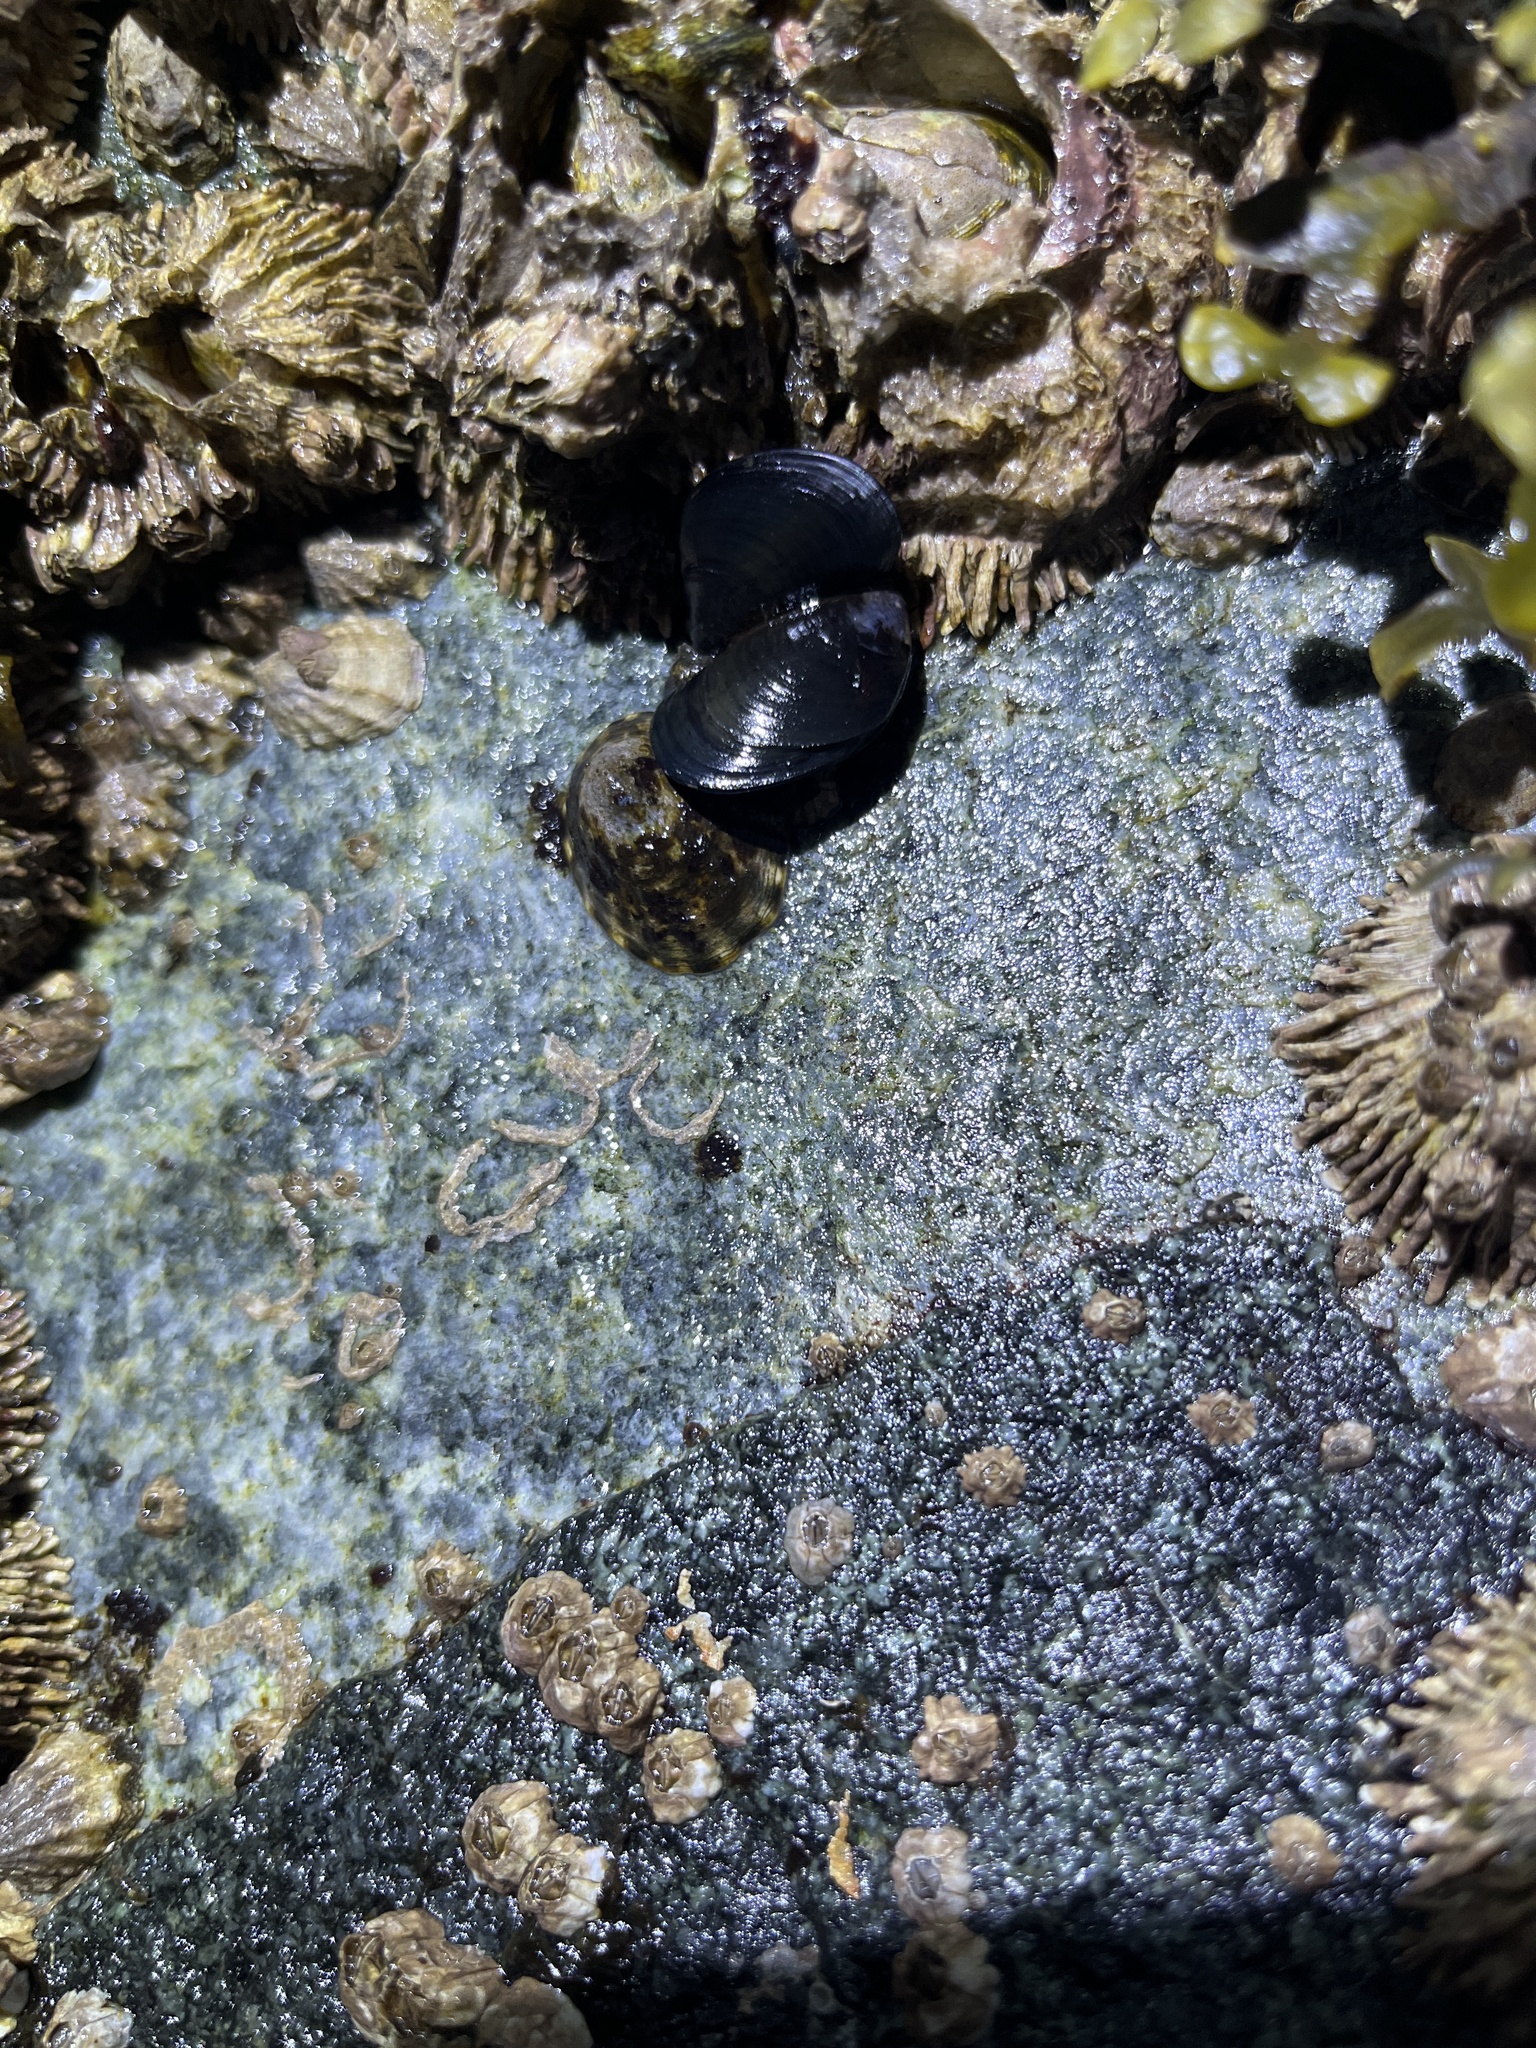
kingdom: Animalia
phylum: Mollusca
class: Bivalvia
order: Mytilida
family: Mytilidae
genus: Mytilus
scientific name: Mytilus
